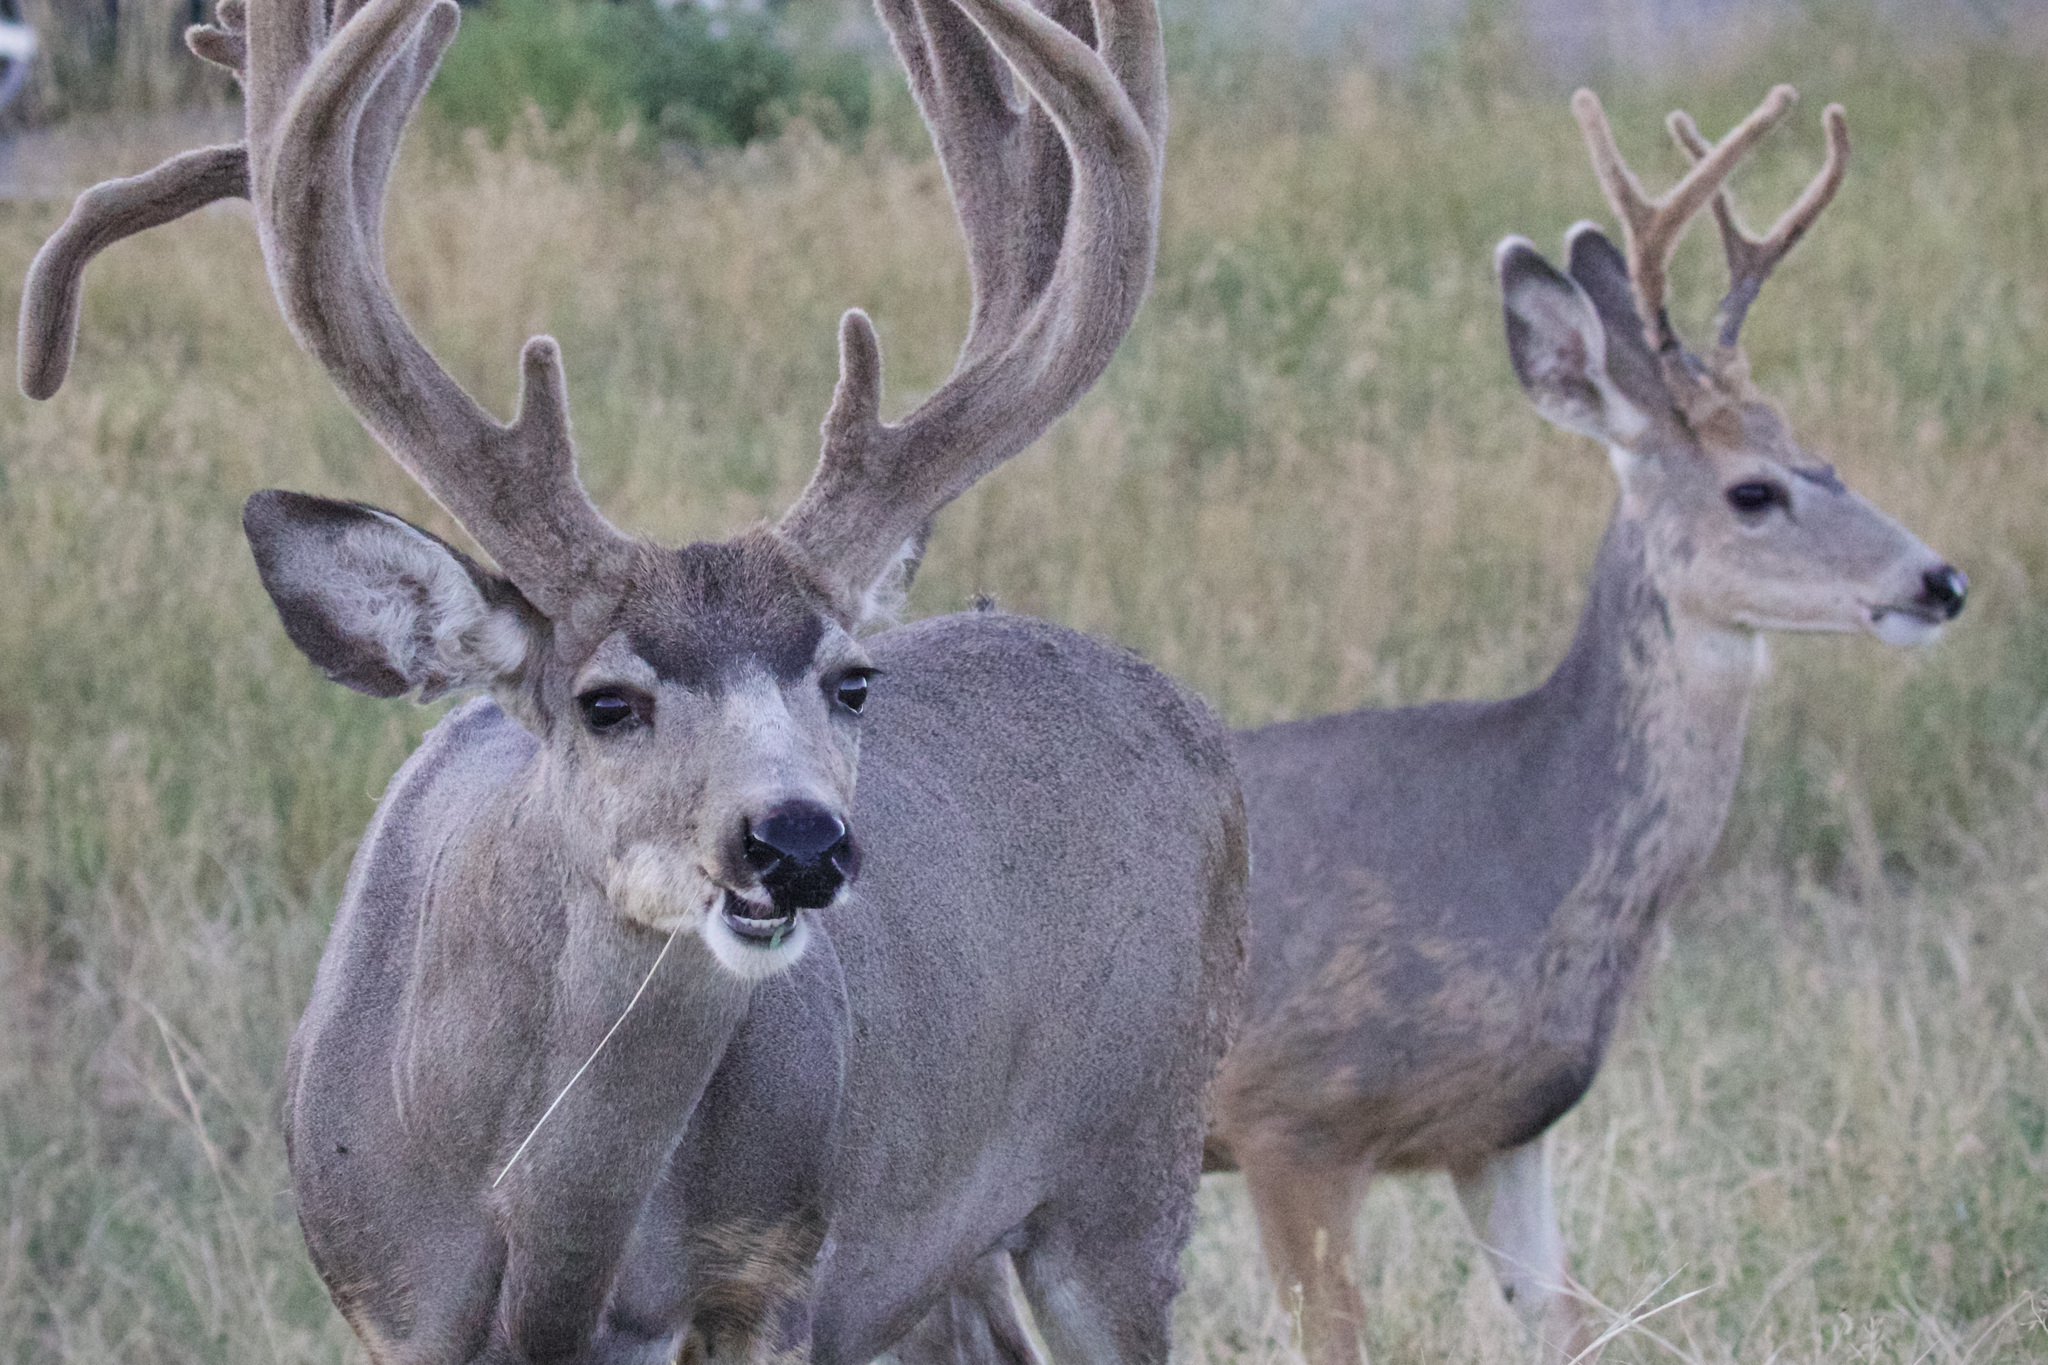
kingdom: Animalia
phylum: Chordata
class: Mammalia
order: Artiodactyla
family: Cervidae
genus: Odocoileus
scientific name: Odocoileus hemionus
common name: Mule deer
